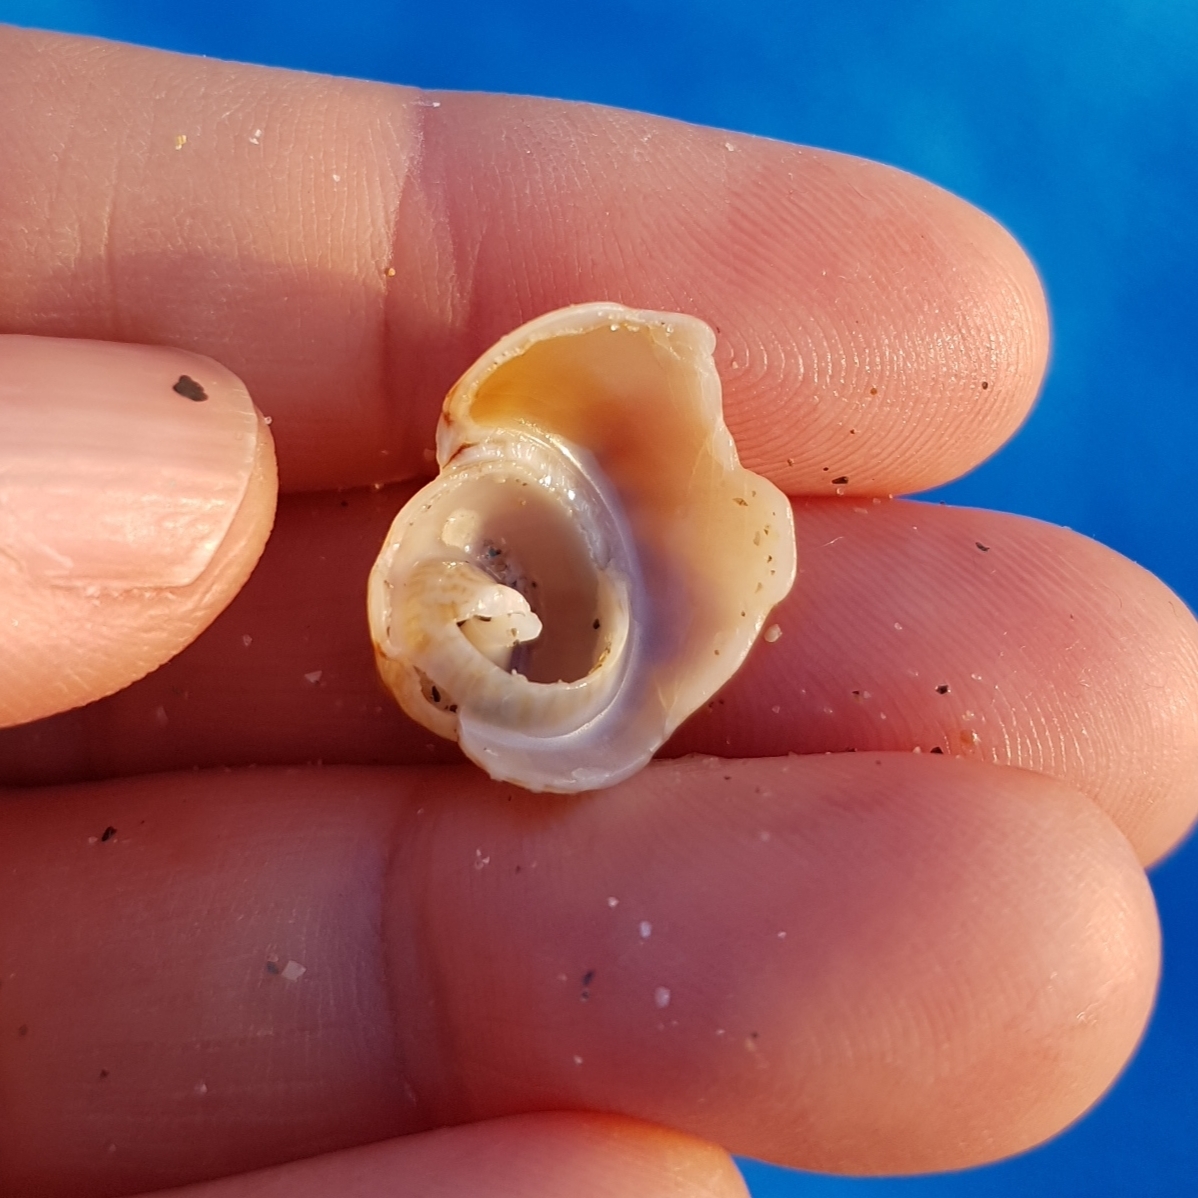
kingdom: Animalia
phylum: Mollusca
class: Gastropoda
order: Neogastropoda
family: Nassariidae
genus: Tritia
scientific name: Tritia mutabilis
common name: Mutable nassa
